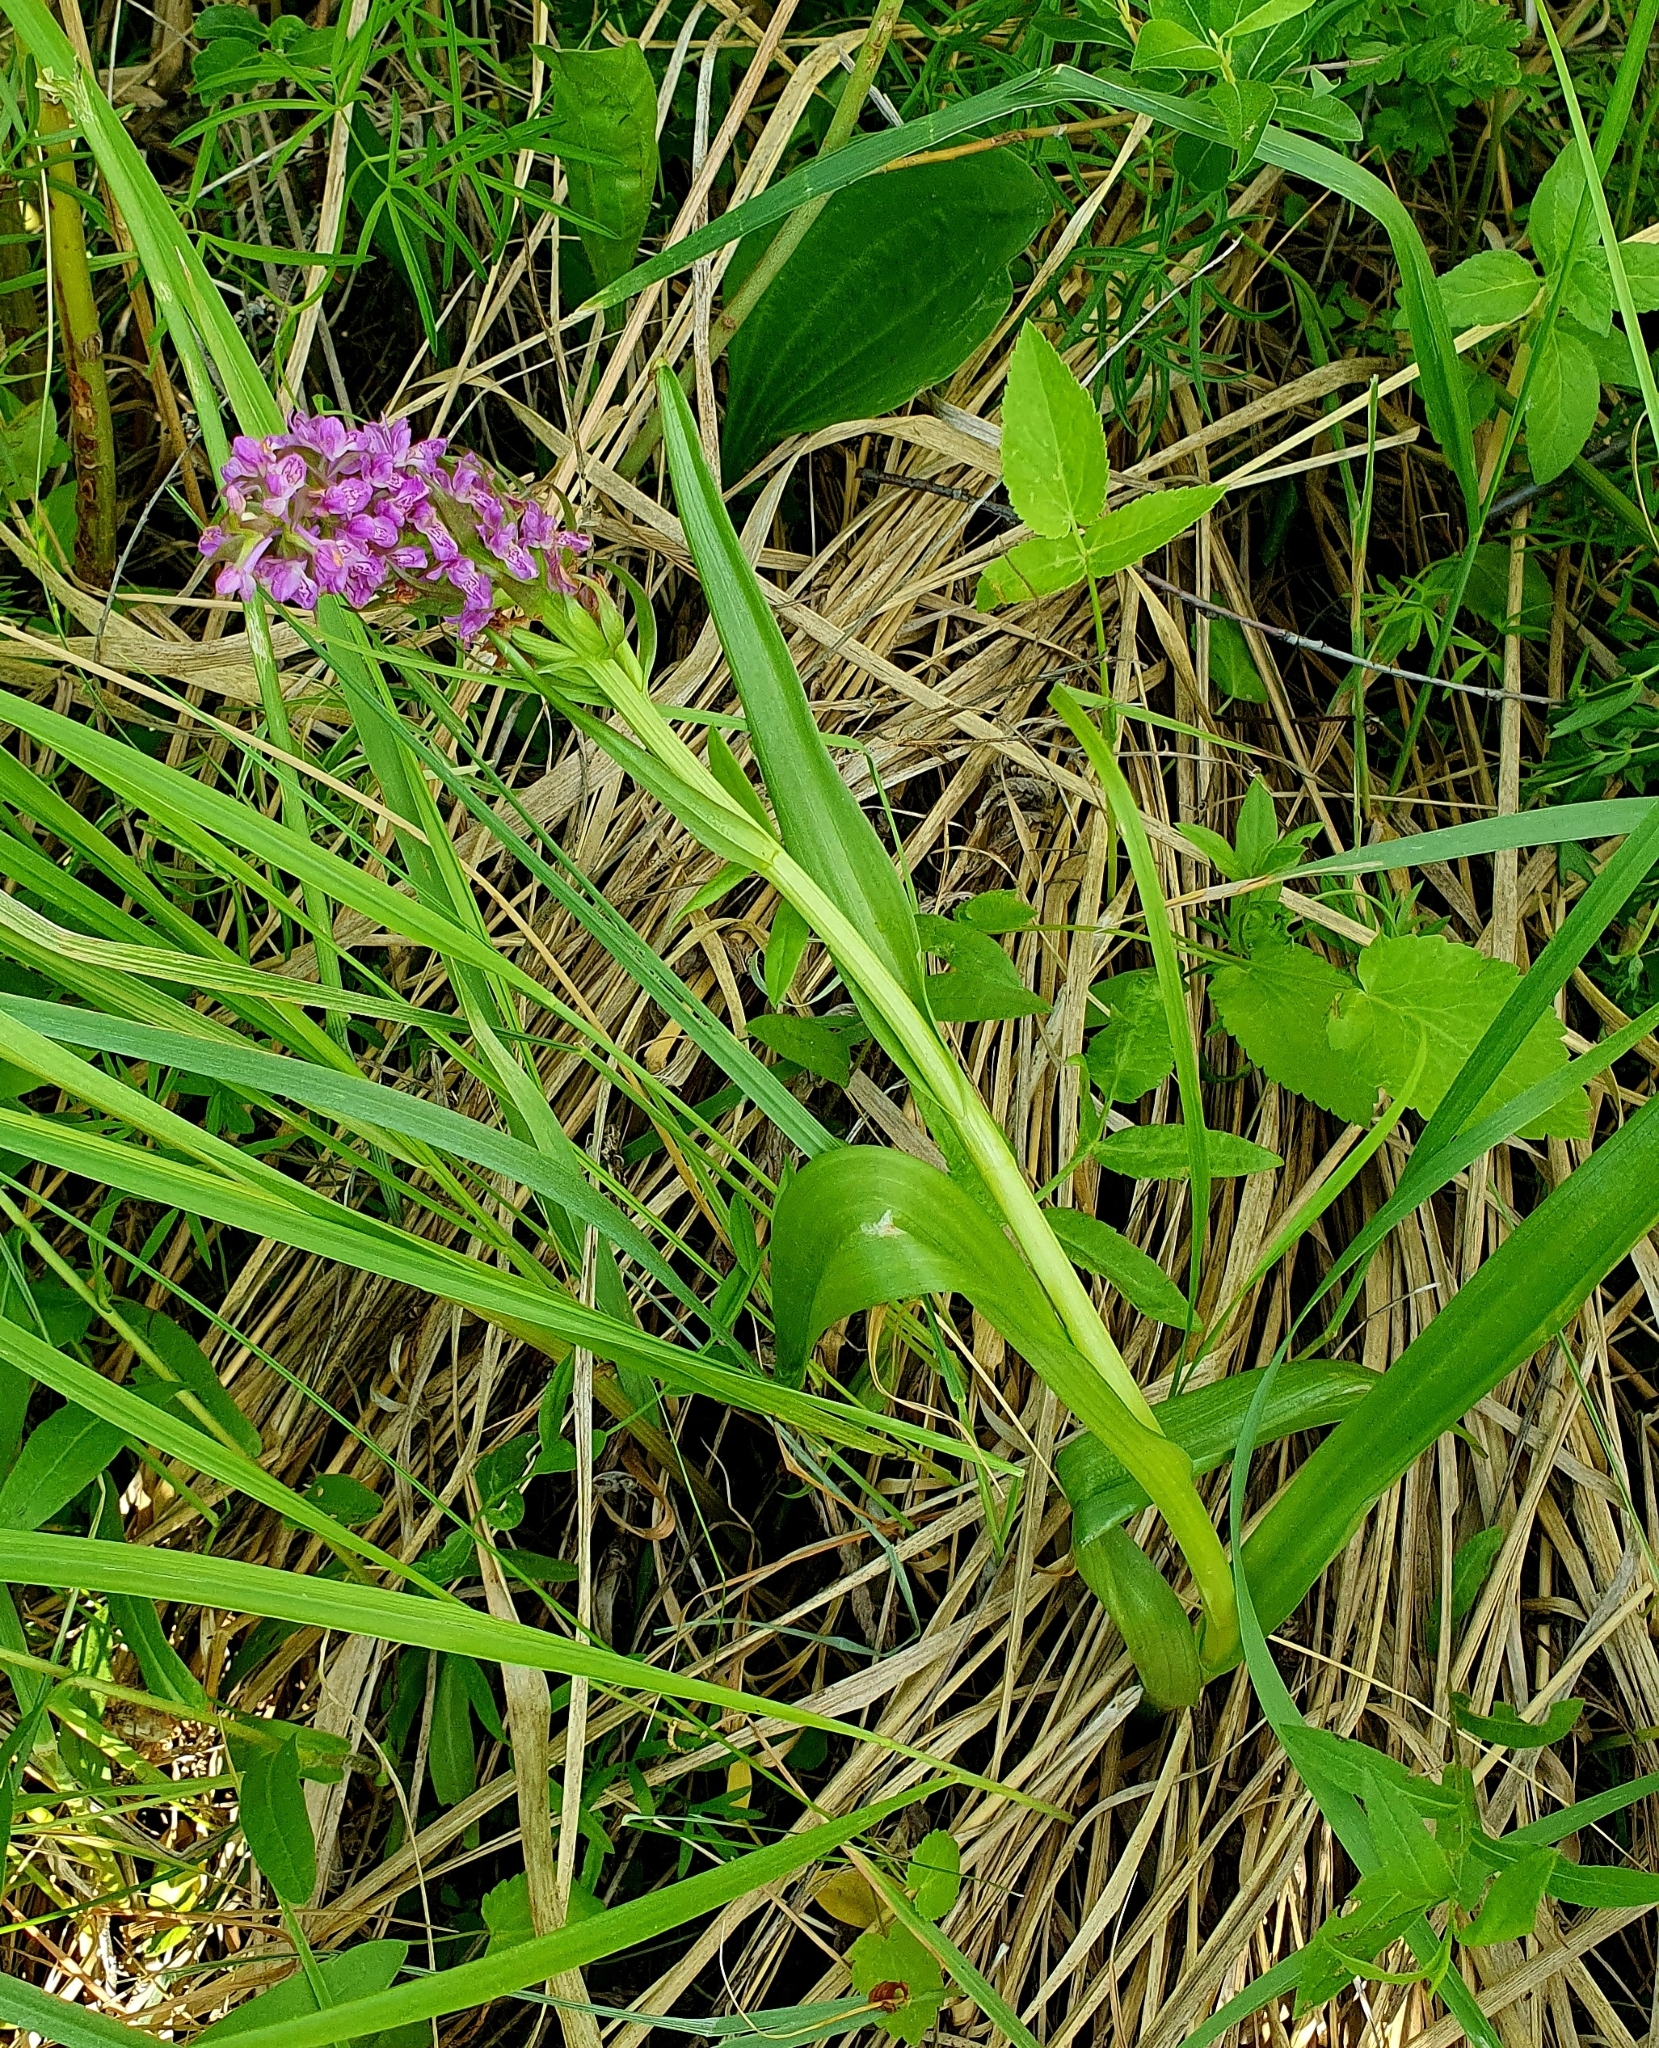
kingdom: Plantae
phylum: Tracheophyta
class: Liliopsida
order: Asparagales
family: Orchidaceae
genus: Dactylorhiza
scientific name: Dactylorhiza incarnata
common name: Early marsh-orchid
